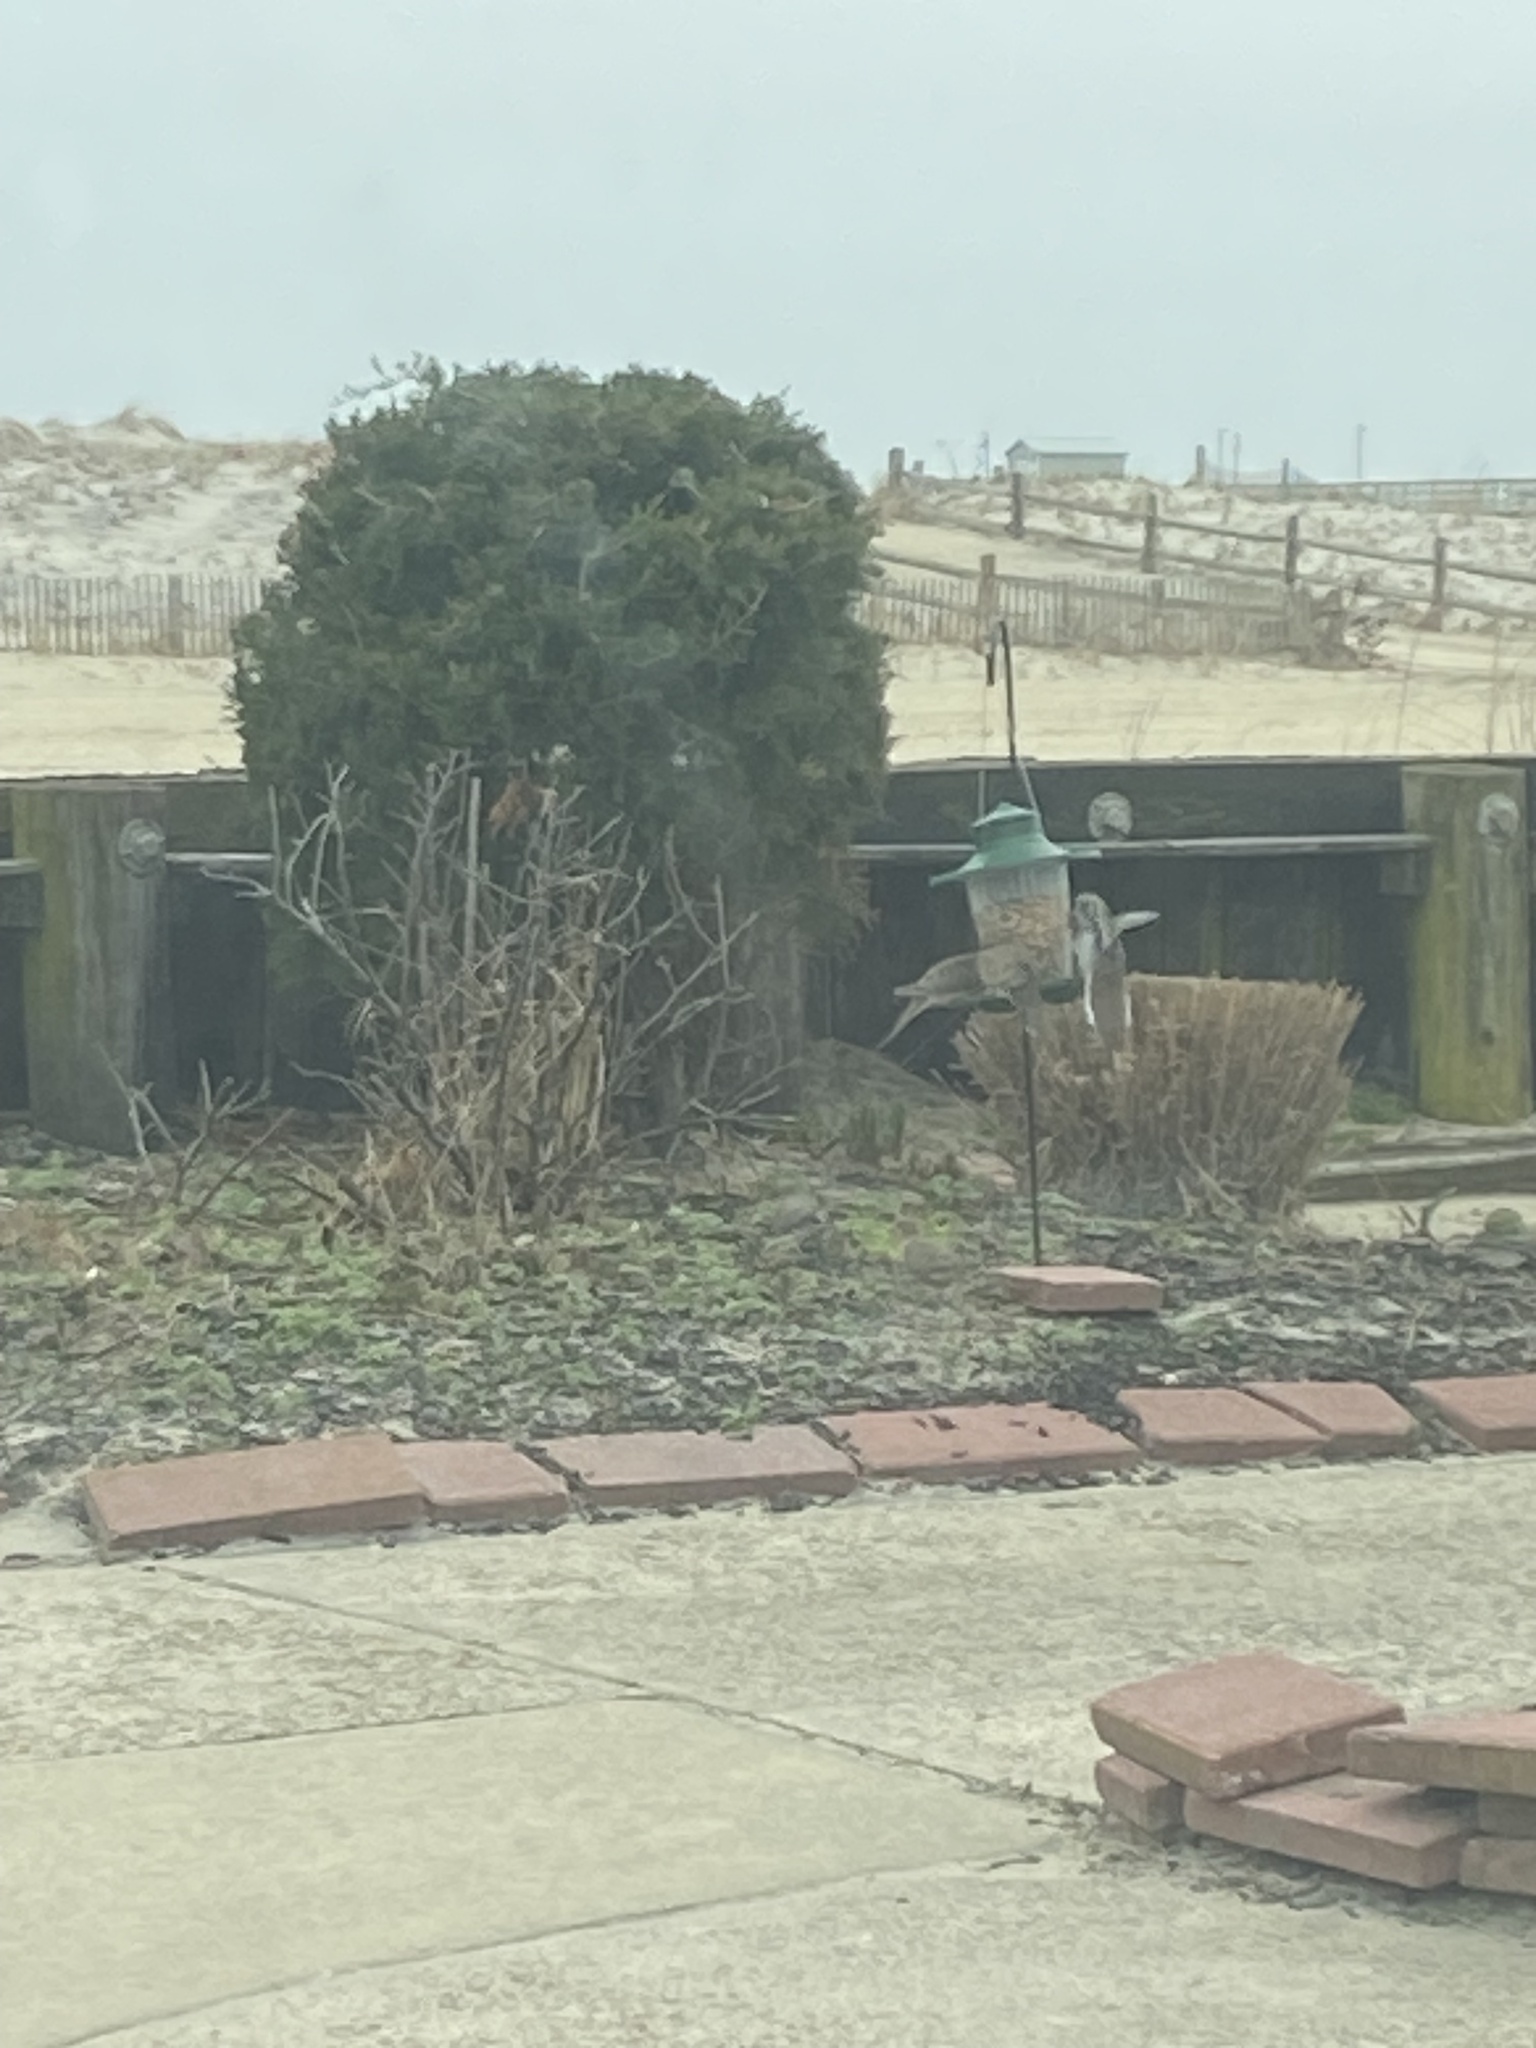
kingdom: Animalia
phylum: Chordata
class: Aves
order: Columbiformes
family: Columbidae
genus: Zenaida
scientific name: Zenaida macroura
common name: Mourning dove
